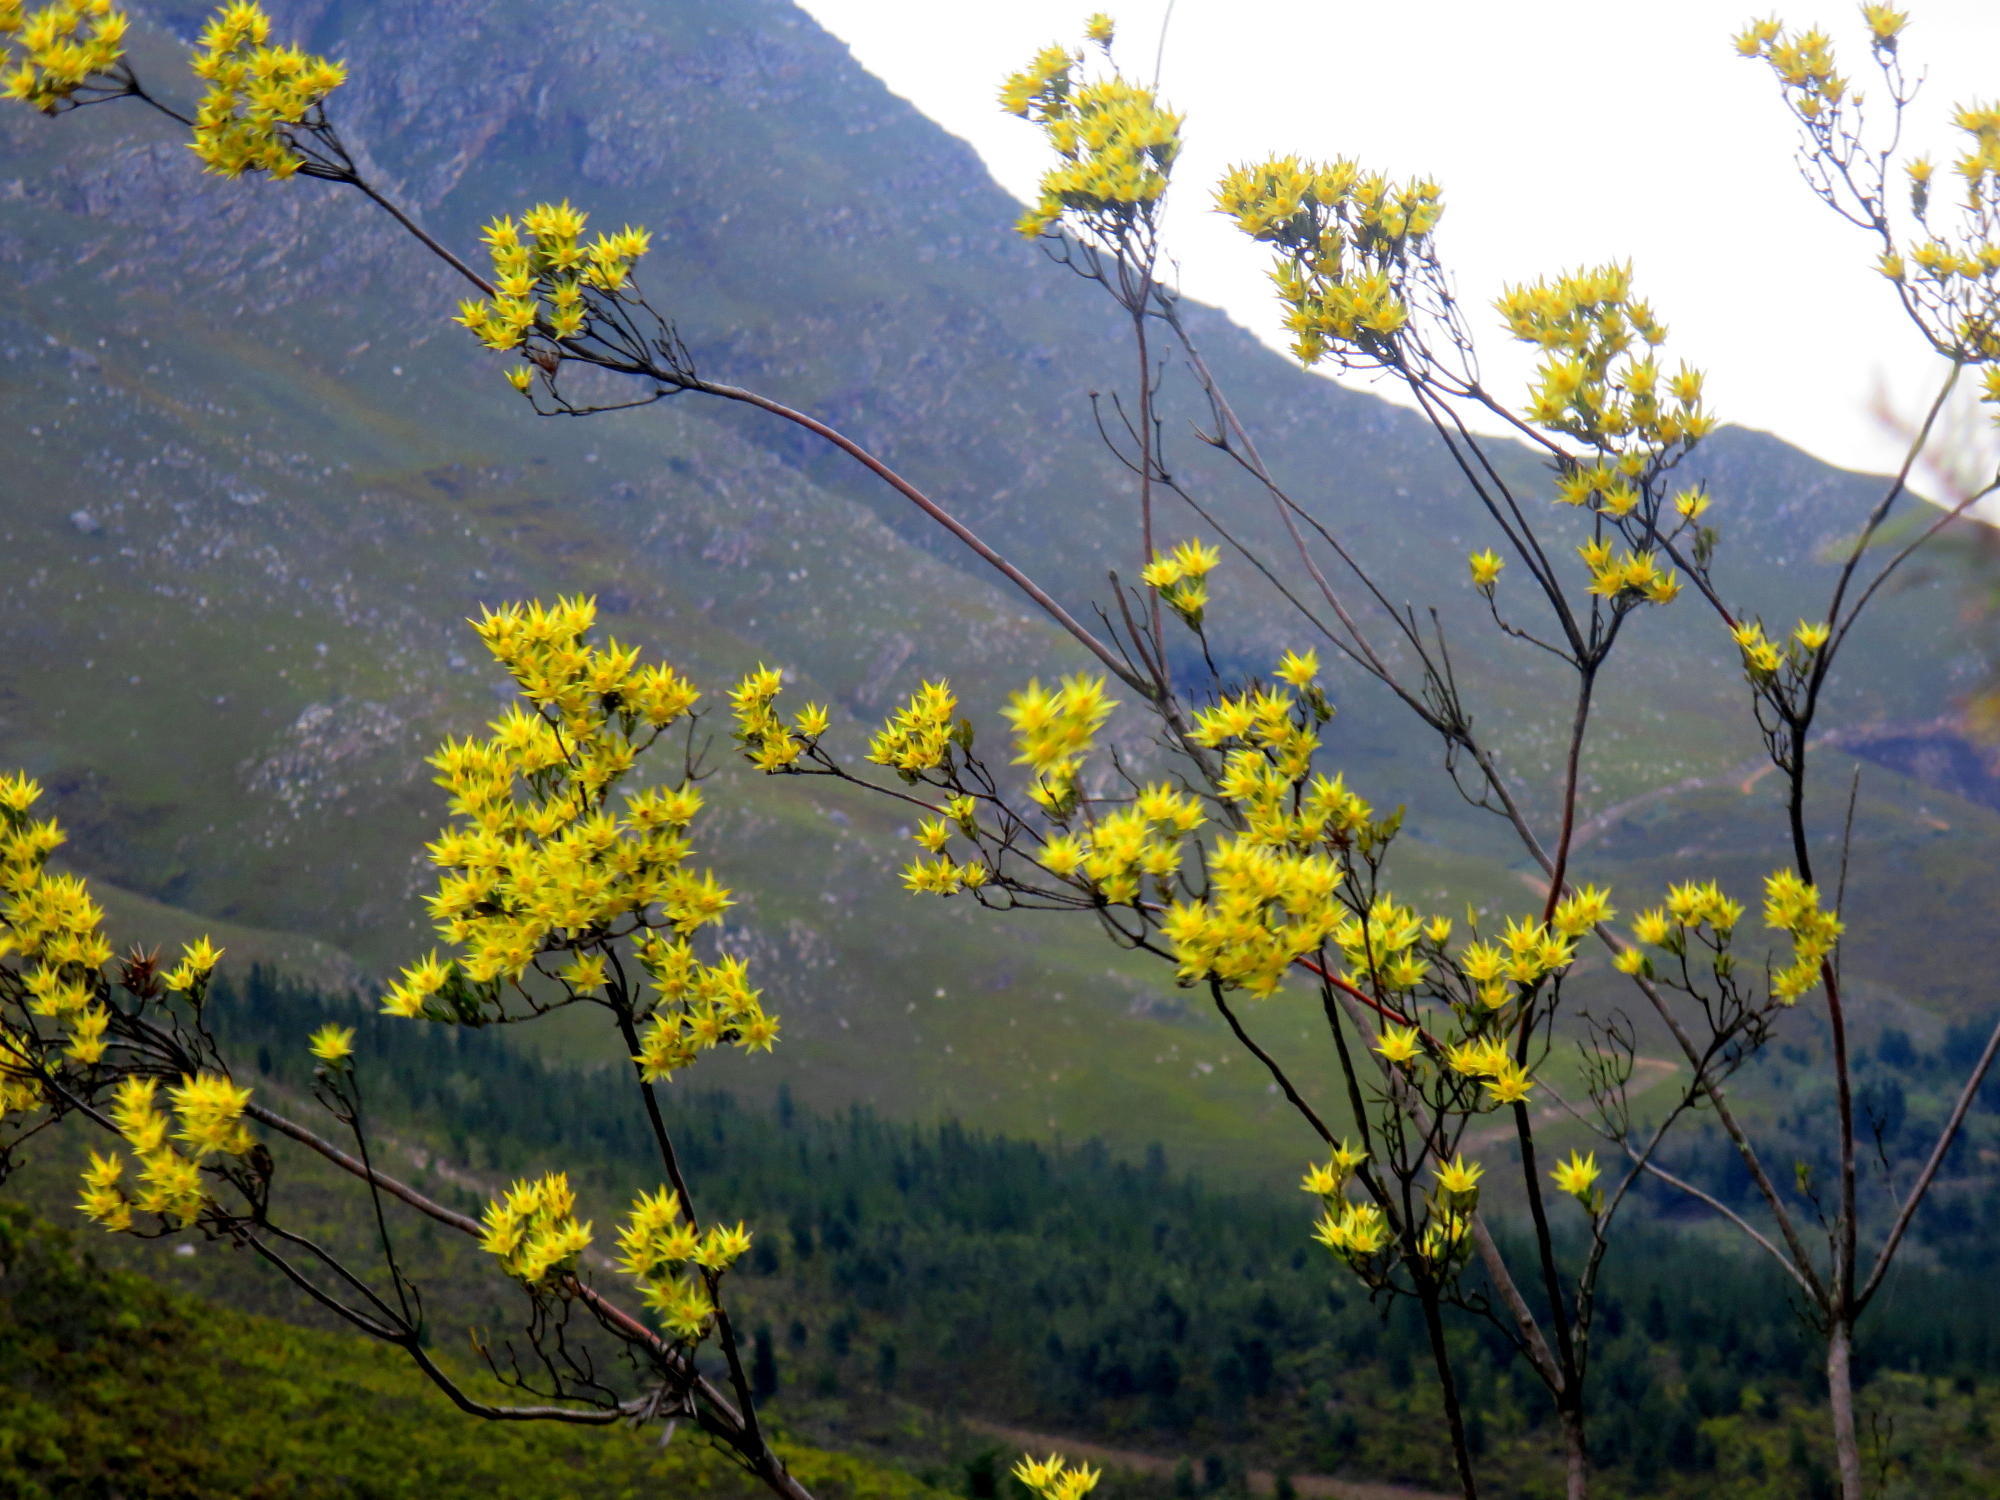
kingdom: Plantae
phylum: Tracheophyta
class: Magnoliopsida
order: Proteales
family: Proteaceae
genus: Leucadendron
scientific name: Leucadendron uliginosum
